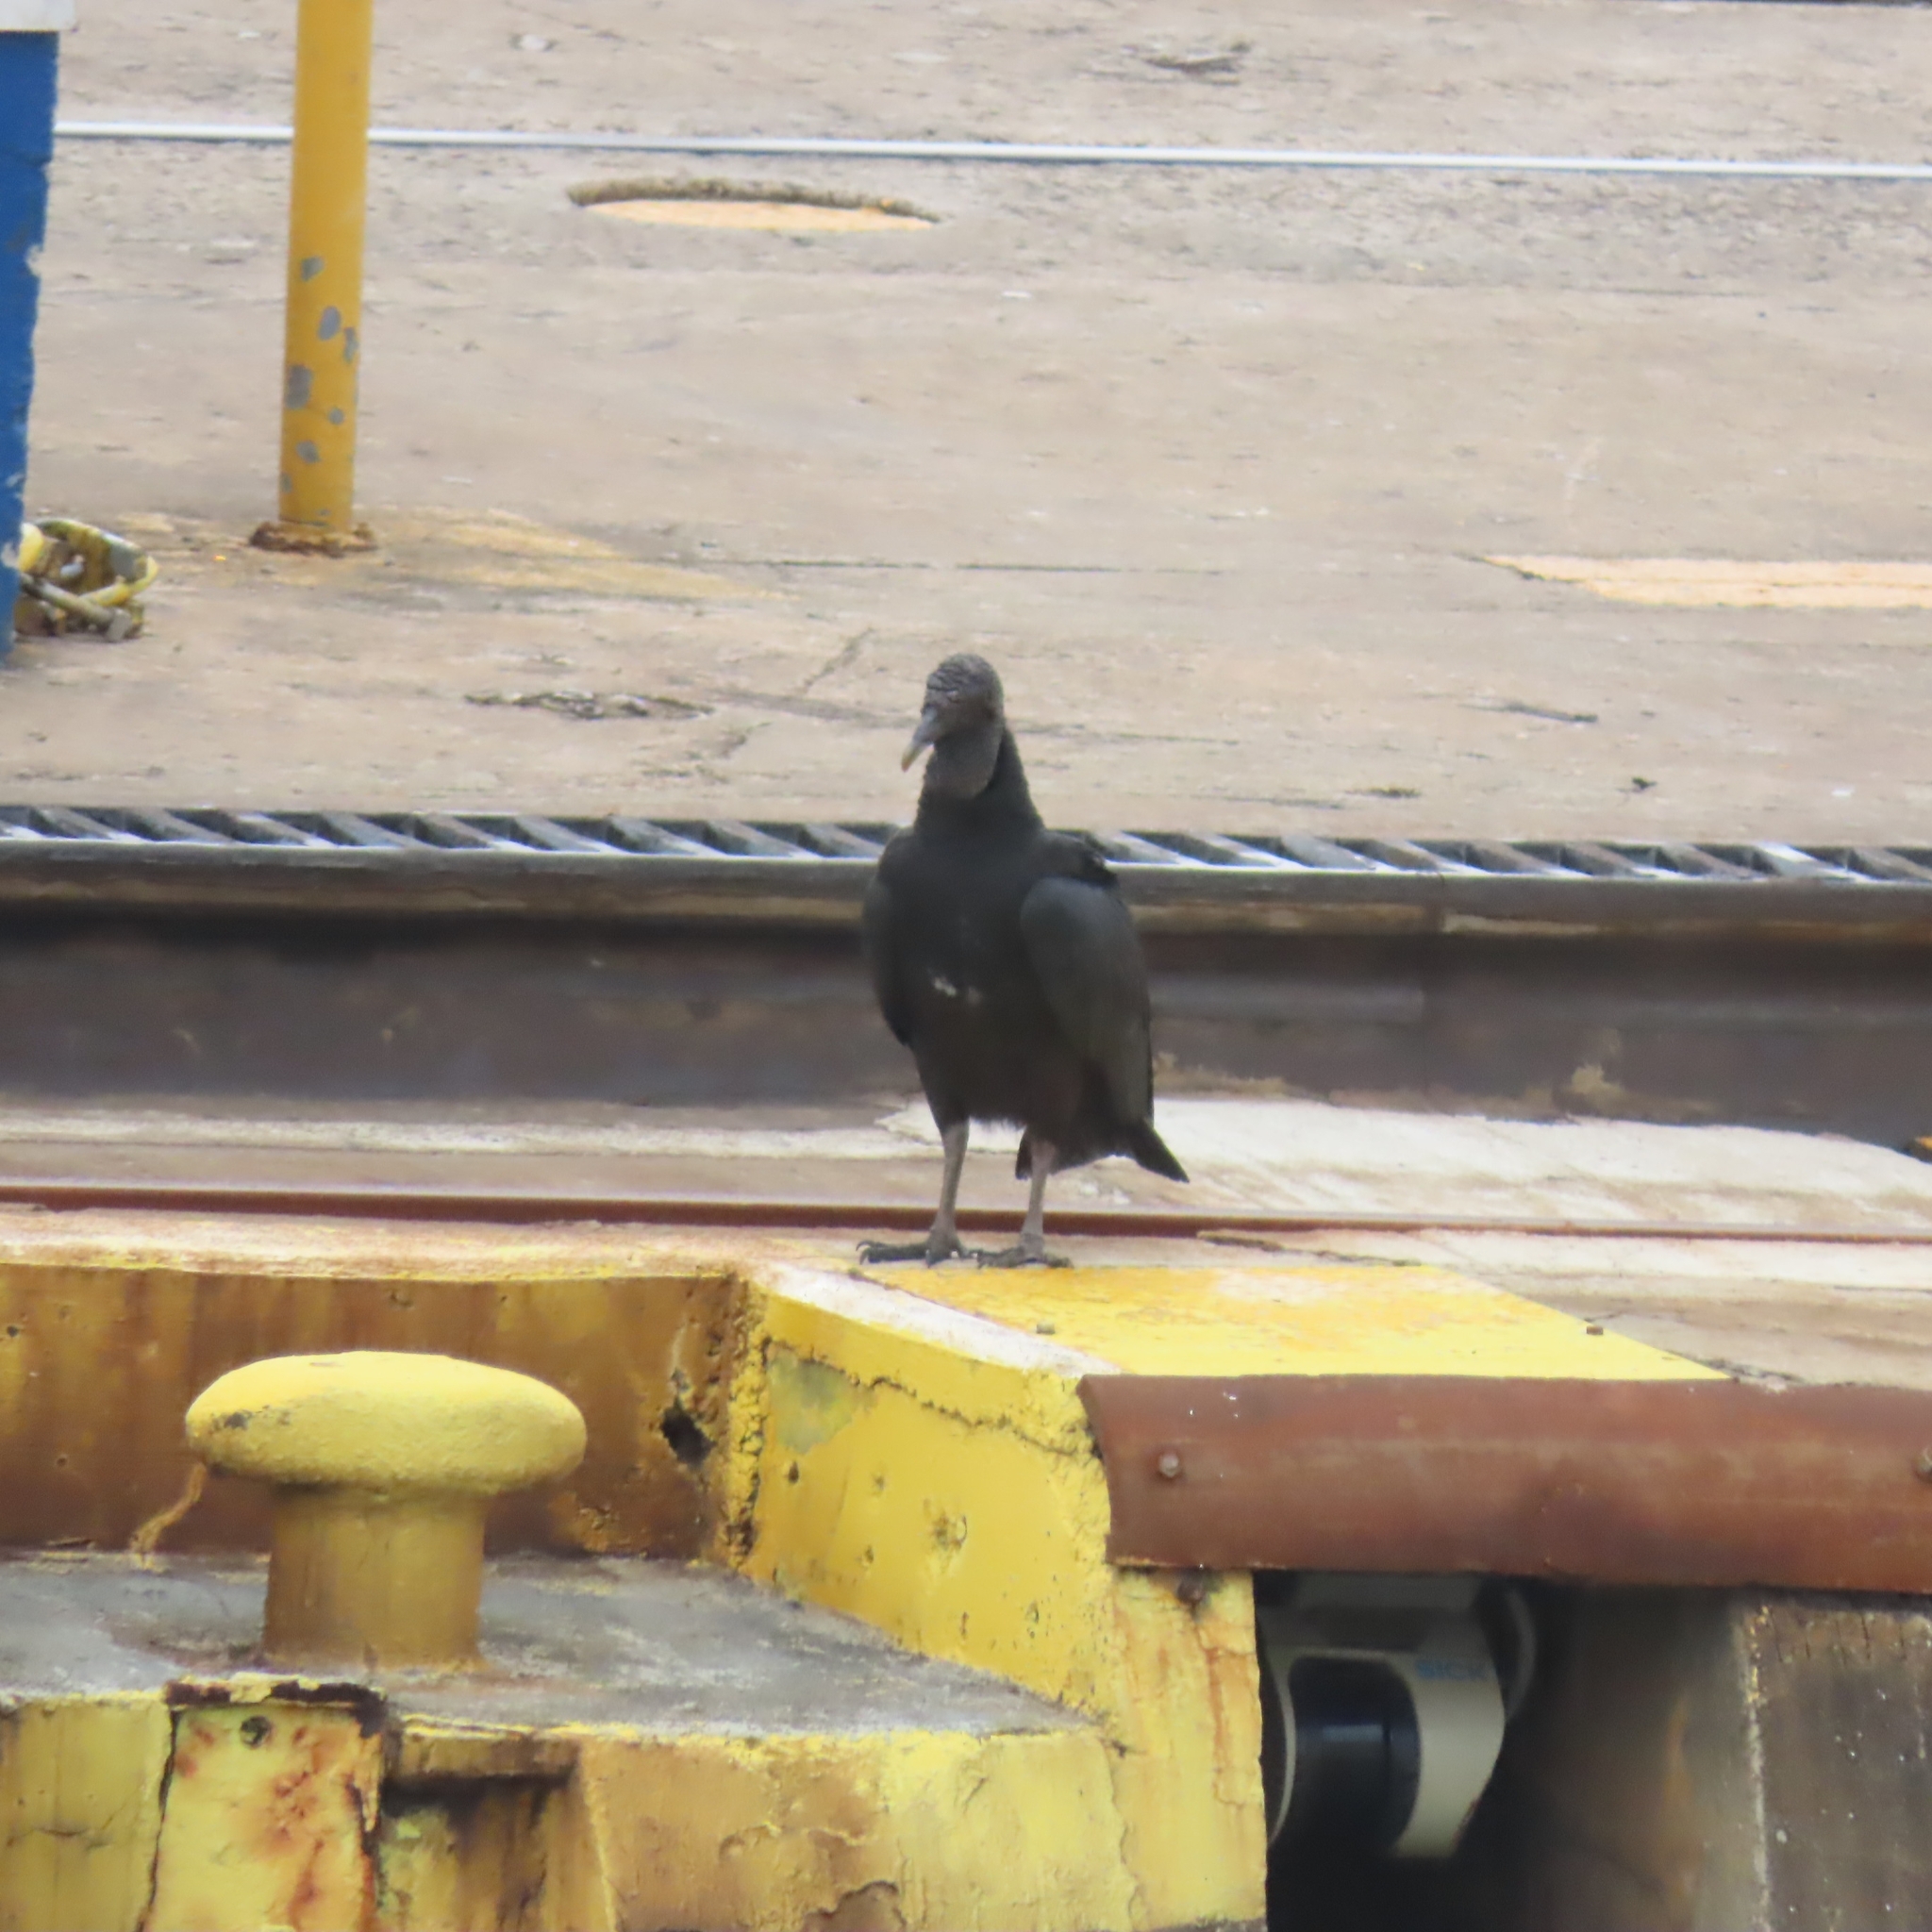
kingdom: Animalia
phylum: Chordata
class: Aves
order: Accipitriformes
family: Cathartidae
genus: Coragyps
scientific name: Coragyps atratus
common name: Black vulture
